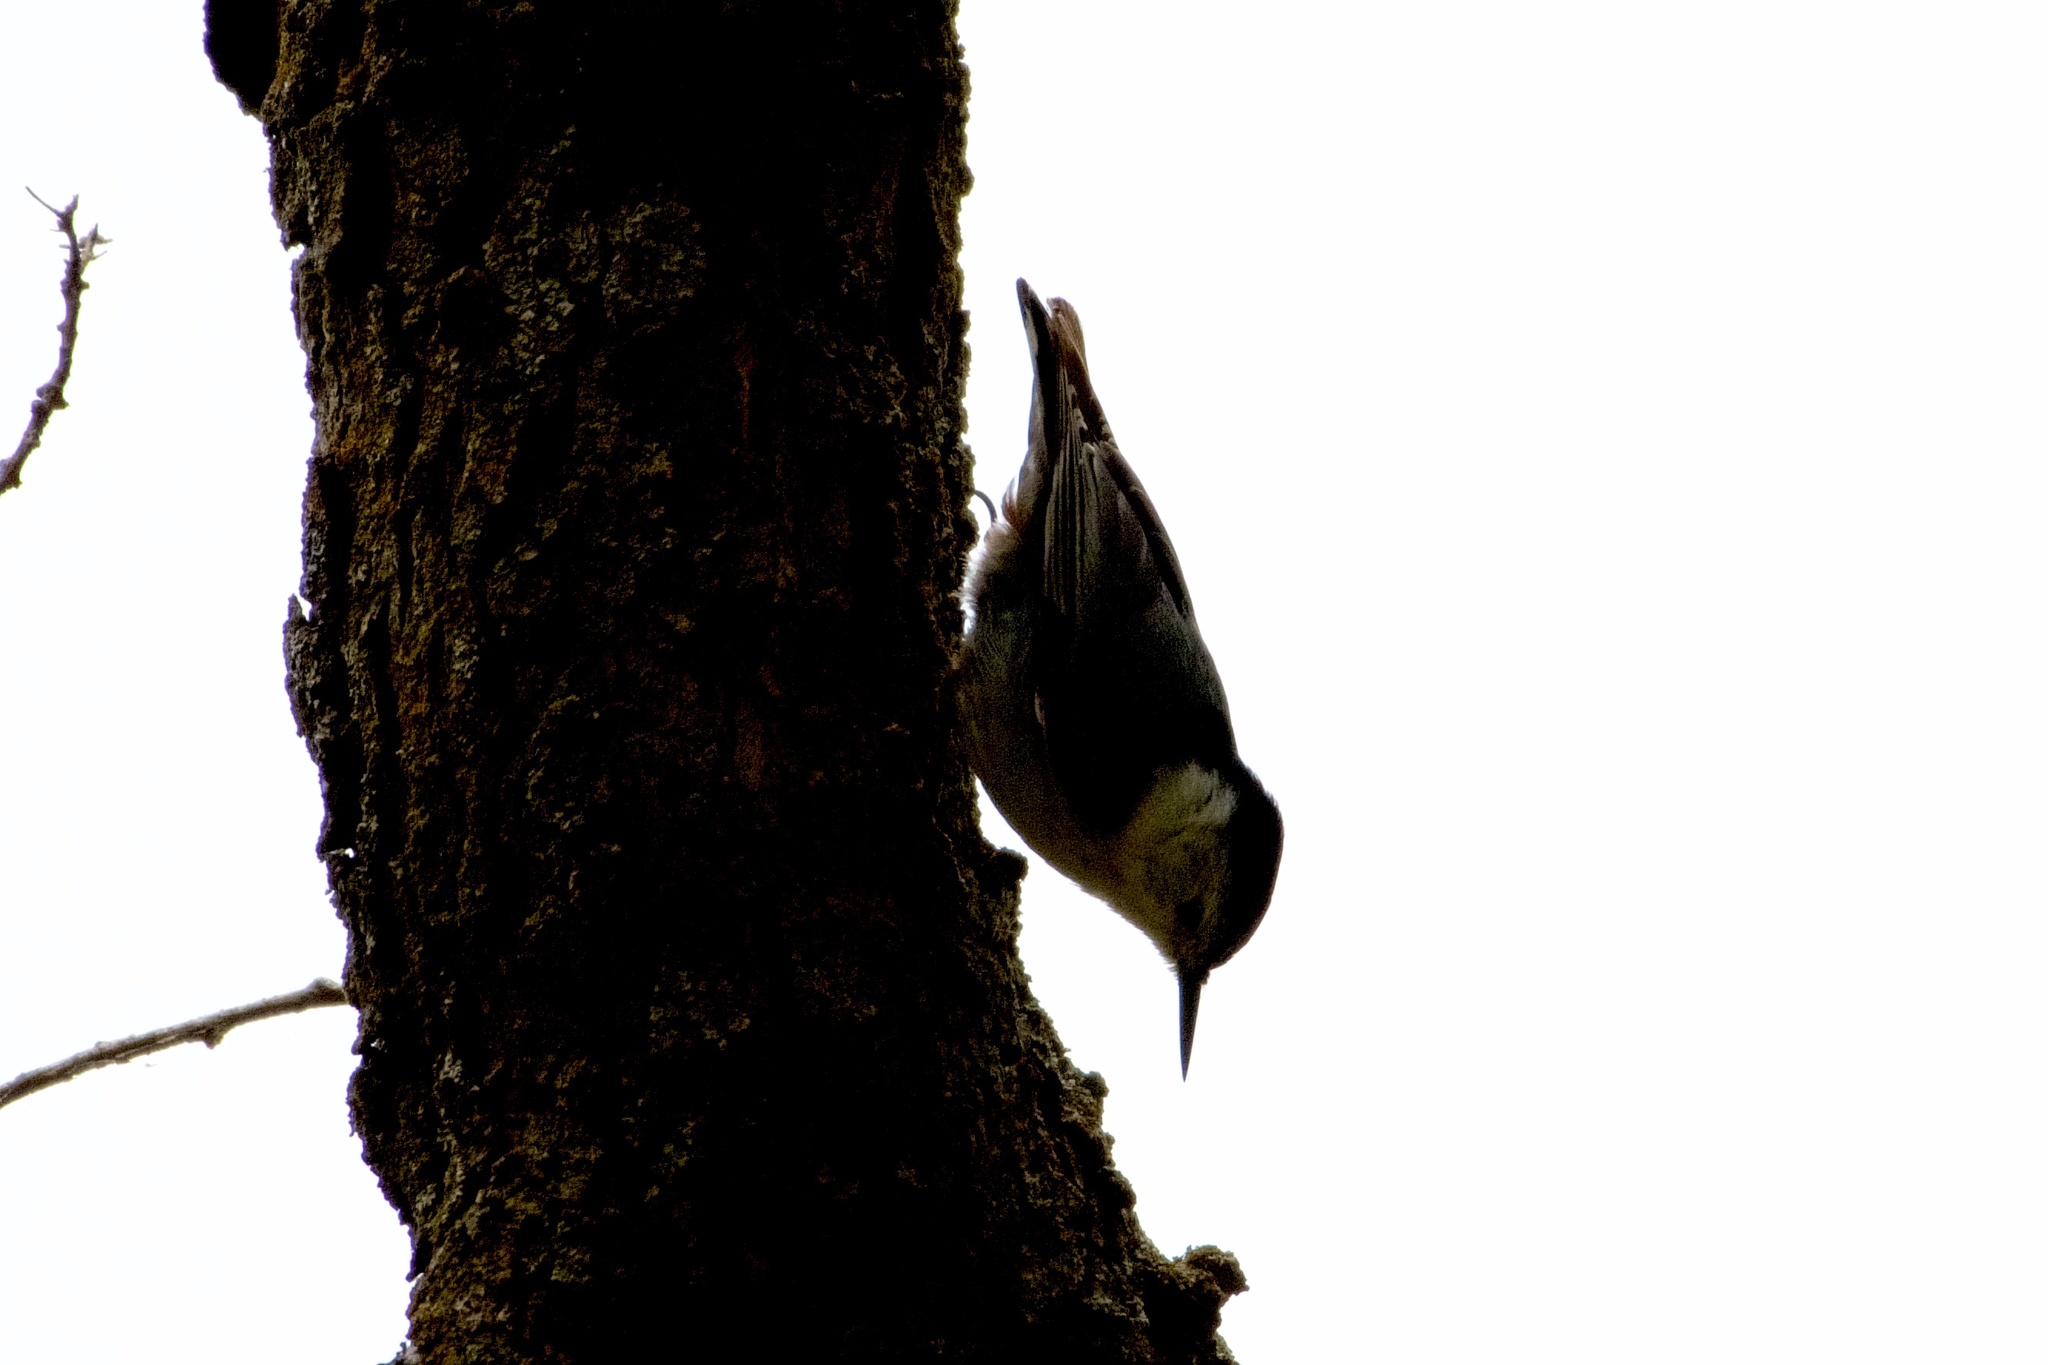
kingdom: Animalia
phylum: Chordata
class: Aves
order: Passeriformes
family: Sittidae
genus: Sitta
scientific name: Sitta carolinensis
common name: White-breasted nuthatch
